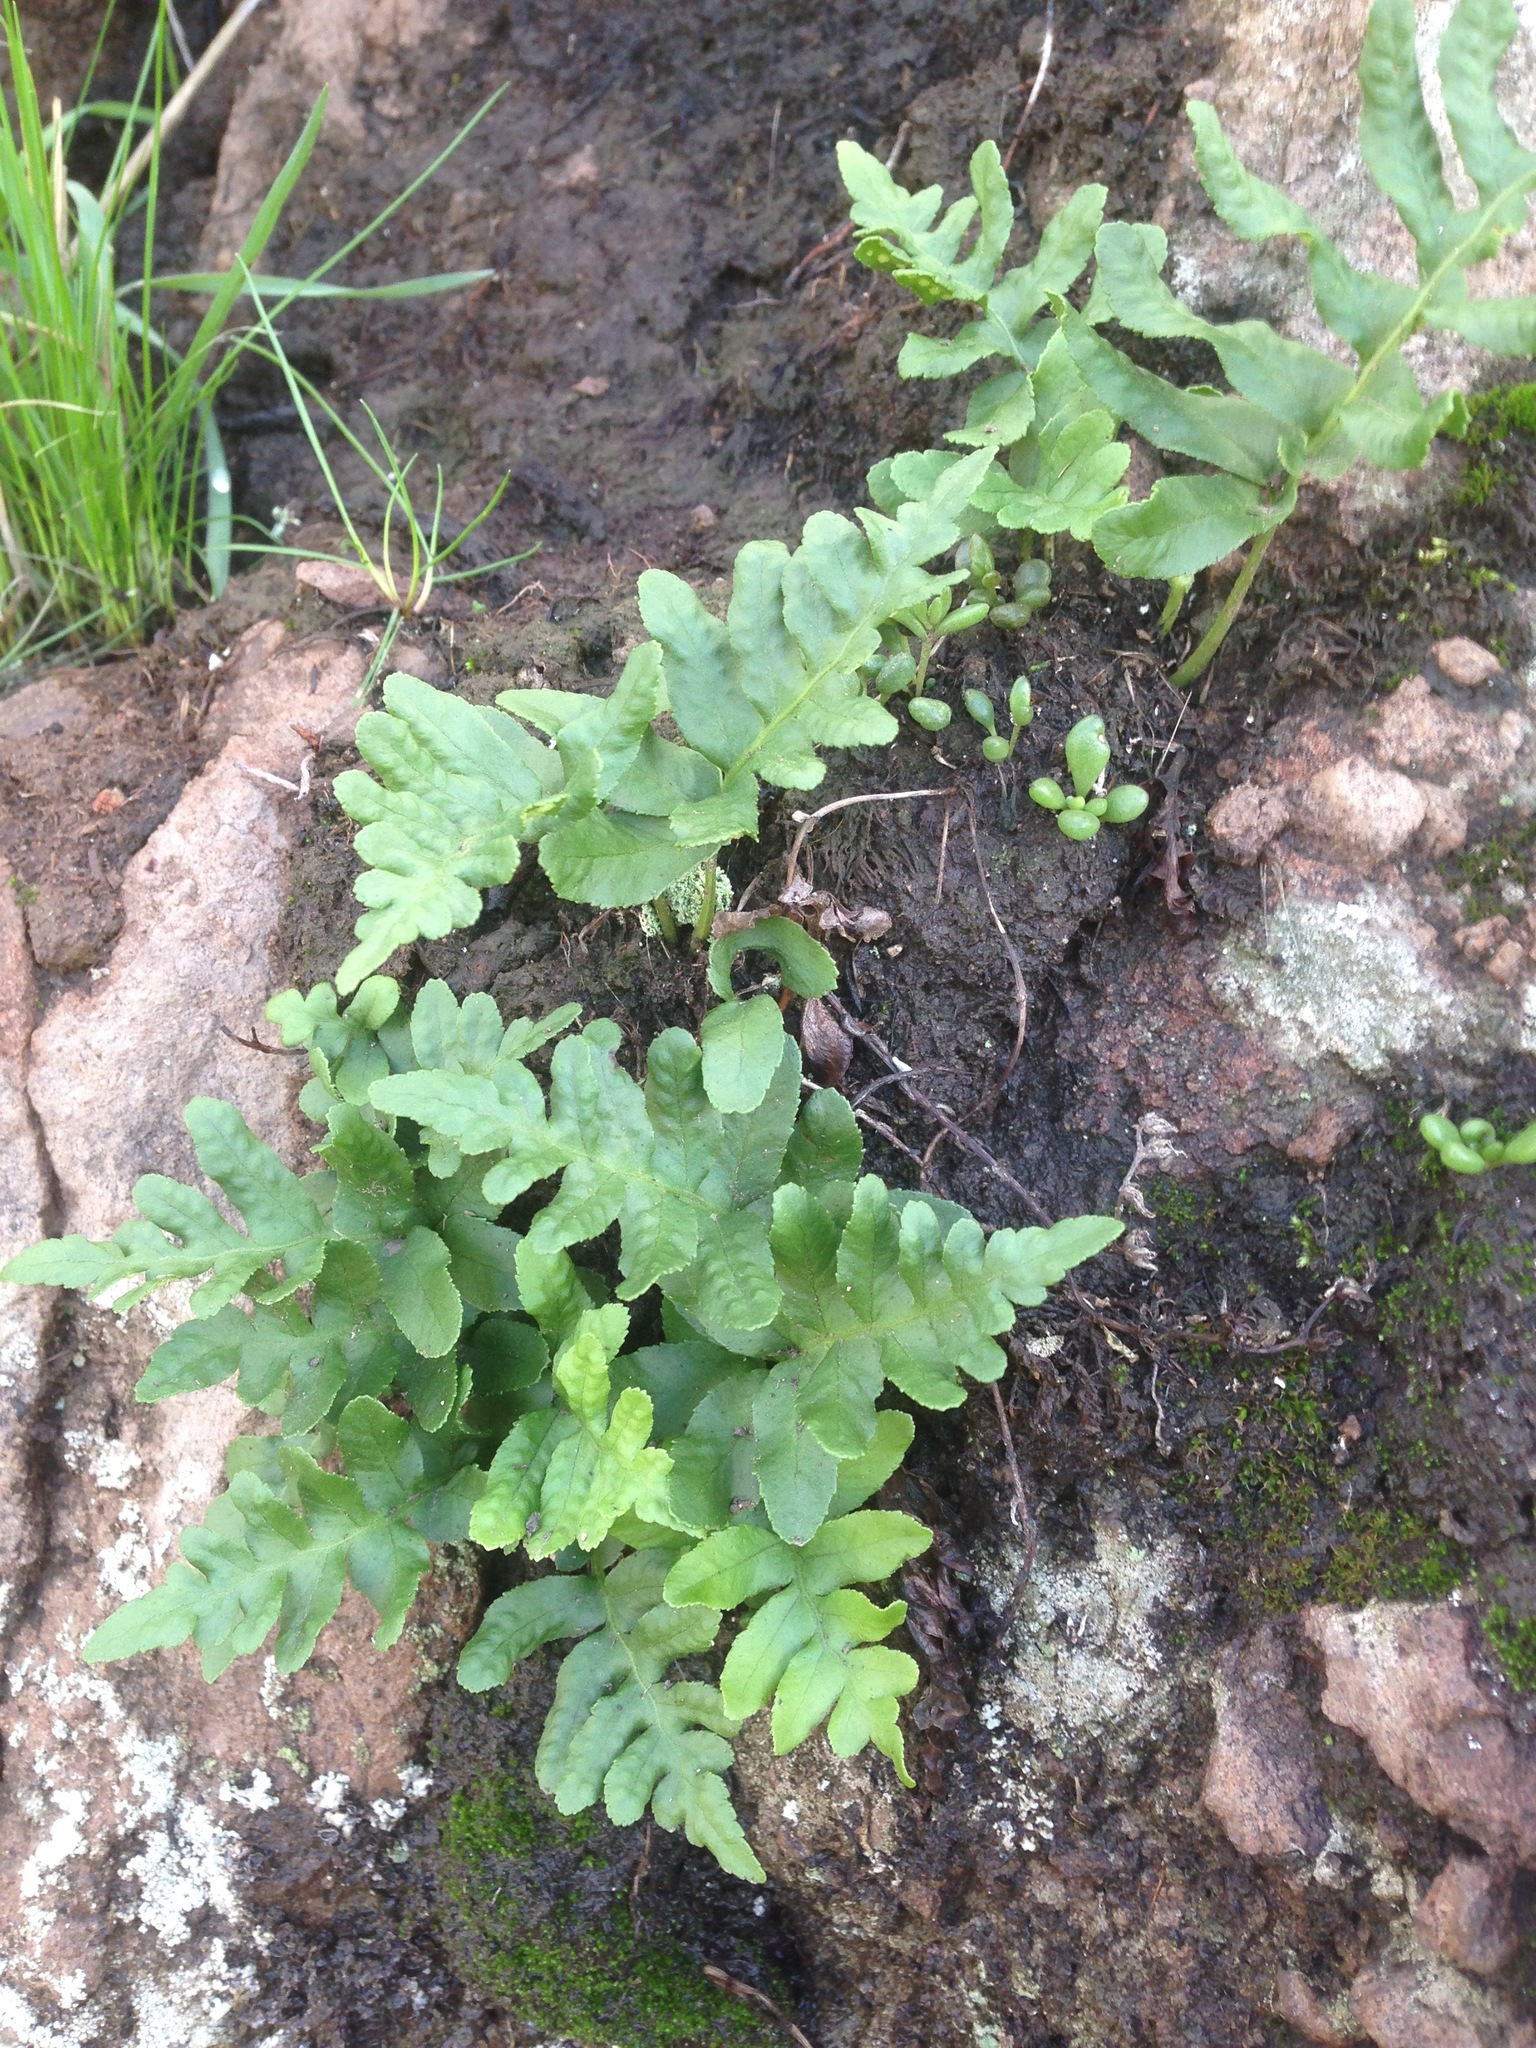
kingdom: Plantae
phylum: Tracheophyta
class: Polypodiopsida
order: Polypodiales
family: Polypodiaceae
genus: Polypodium
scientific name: Polypodium californicum
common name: California polypody
